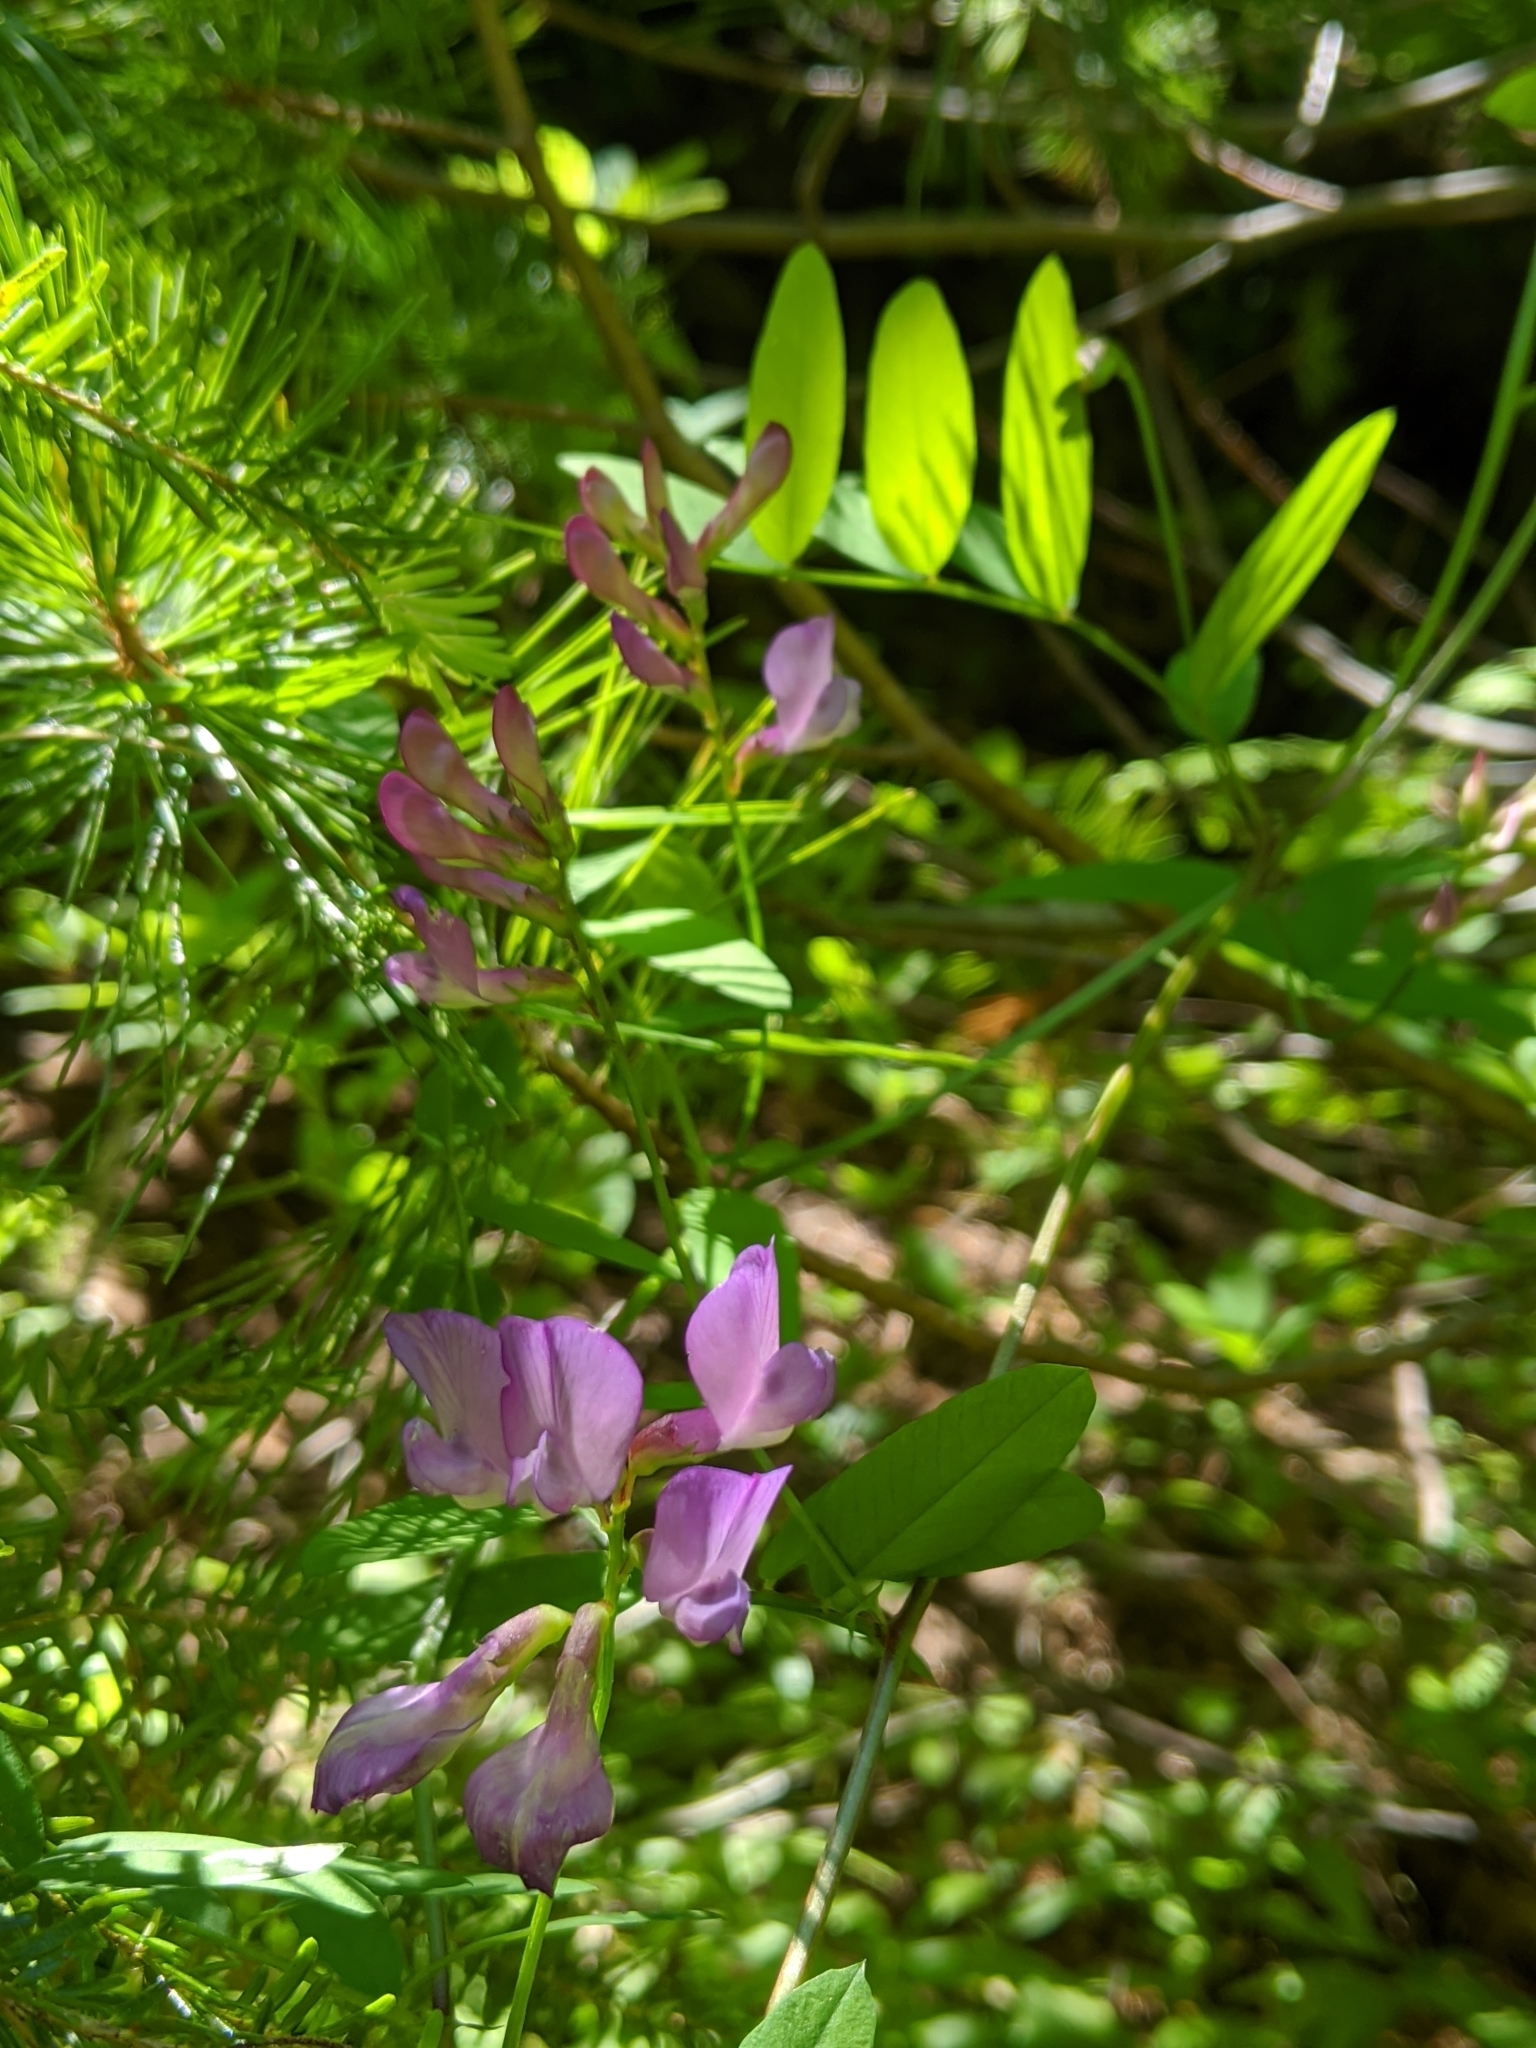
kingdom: Plantae
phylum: Tracheophyta
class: Magnoliopsida
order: Fabales
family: Fabaceae
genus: Vicia
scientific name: Vicia americana
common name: American vetch
